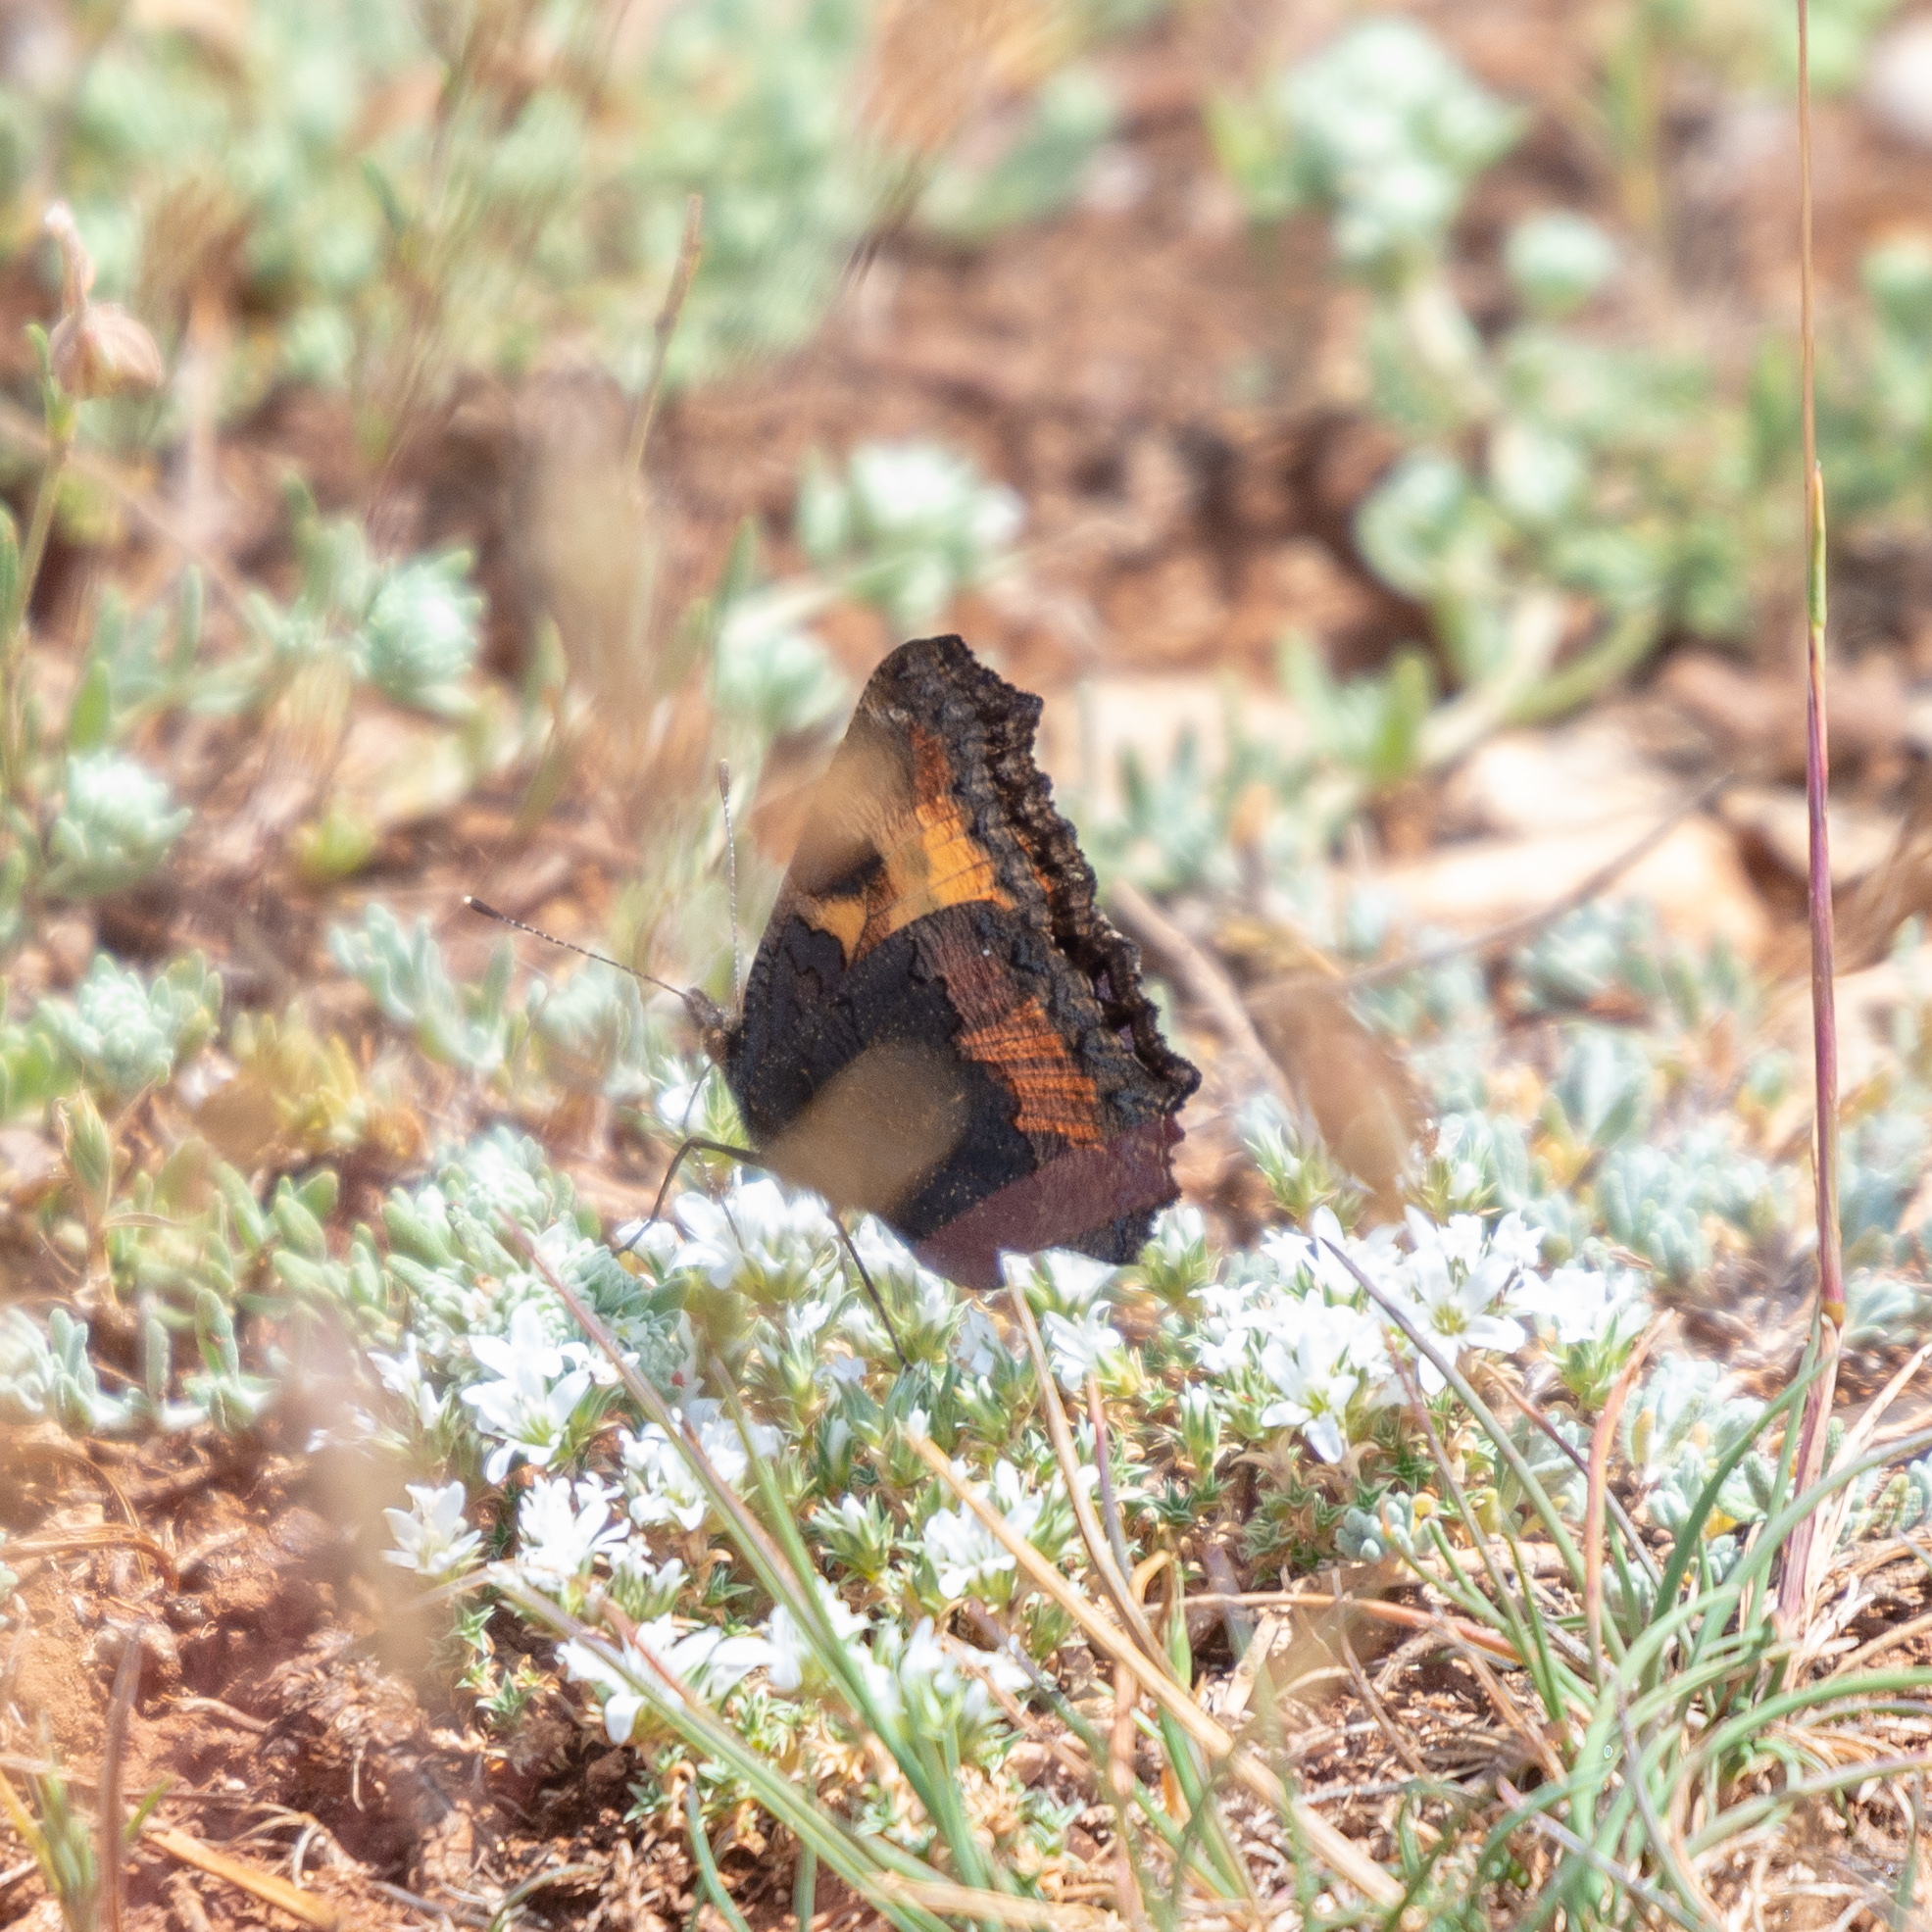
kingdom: Animalia
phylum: Arthropoda
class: Insecta
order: Lepidoptera
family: Nymphalidae
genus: Aglais
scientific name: Aglais urticae
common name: Small tortoiseshell
